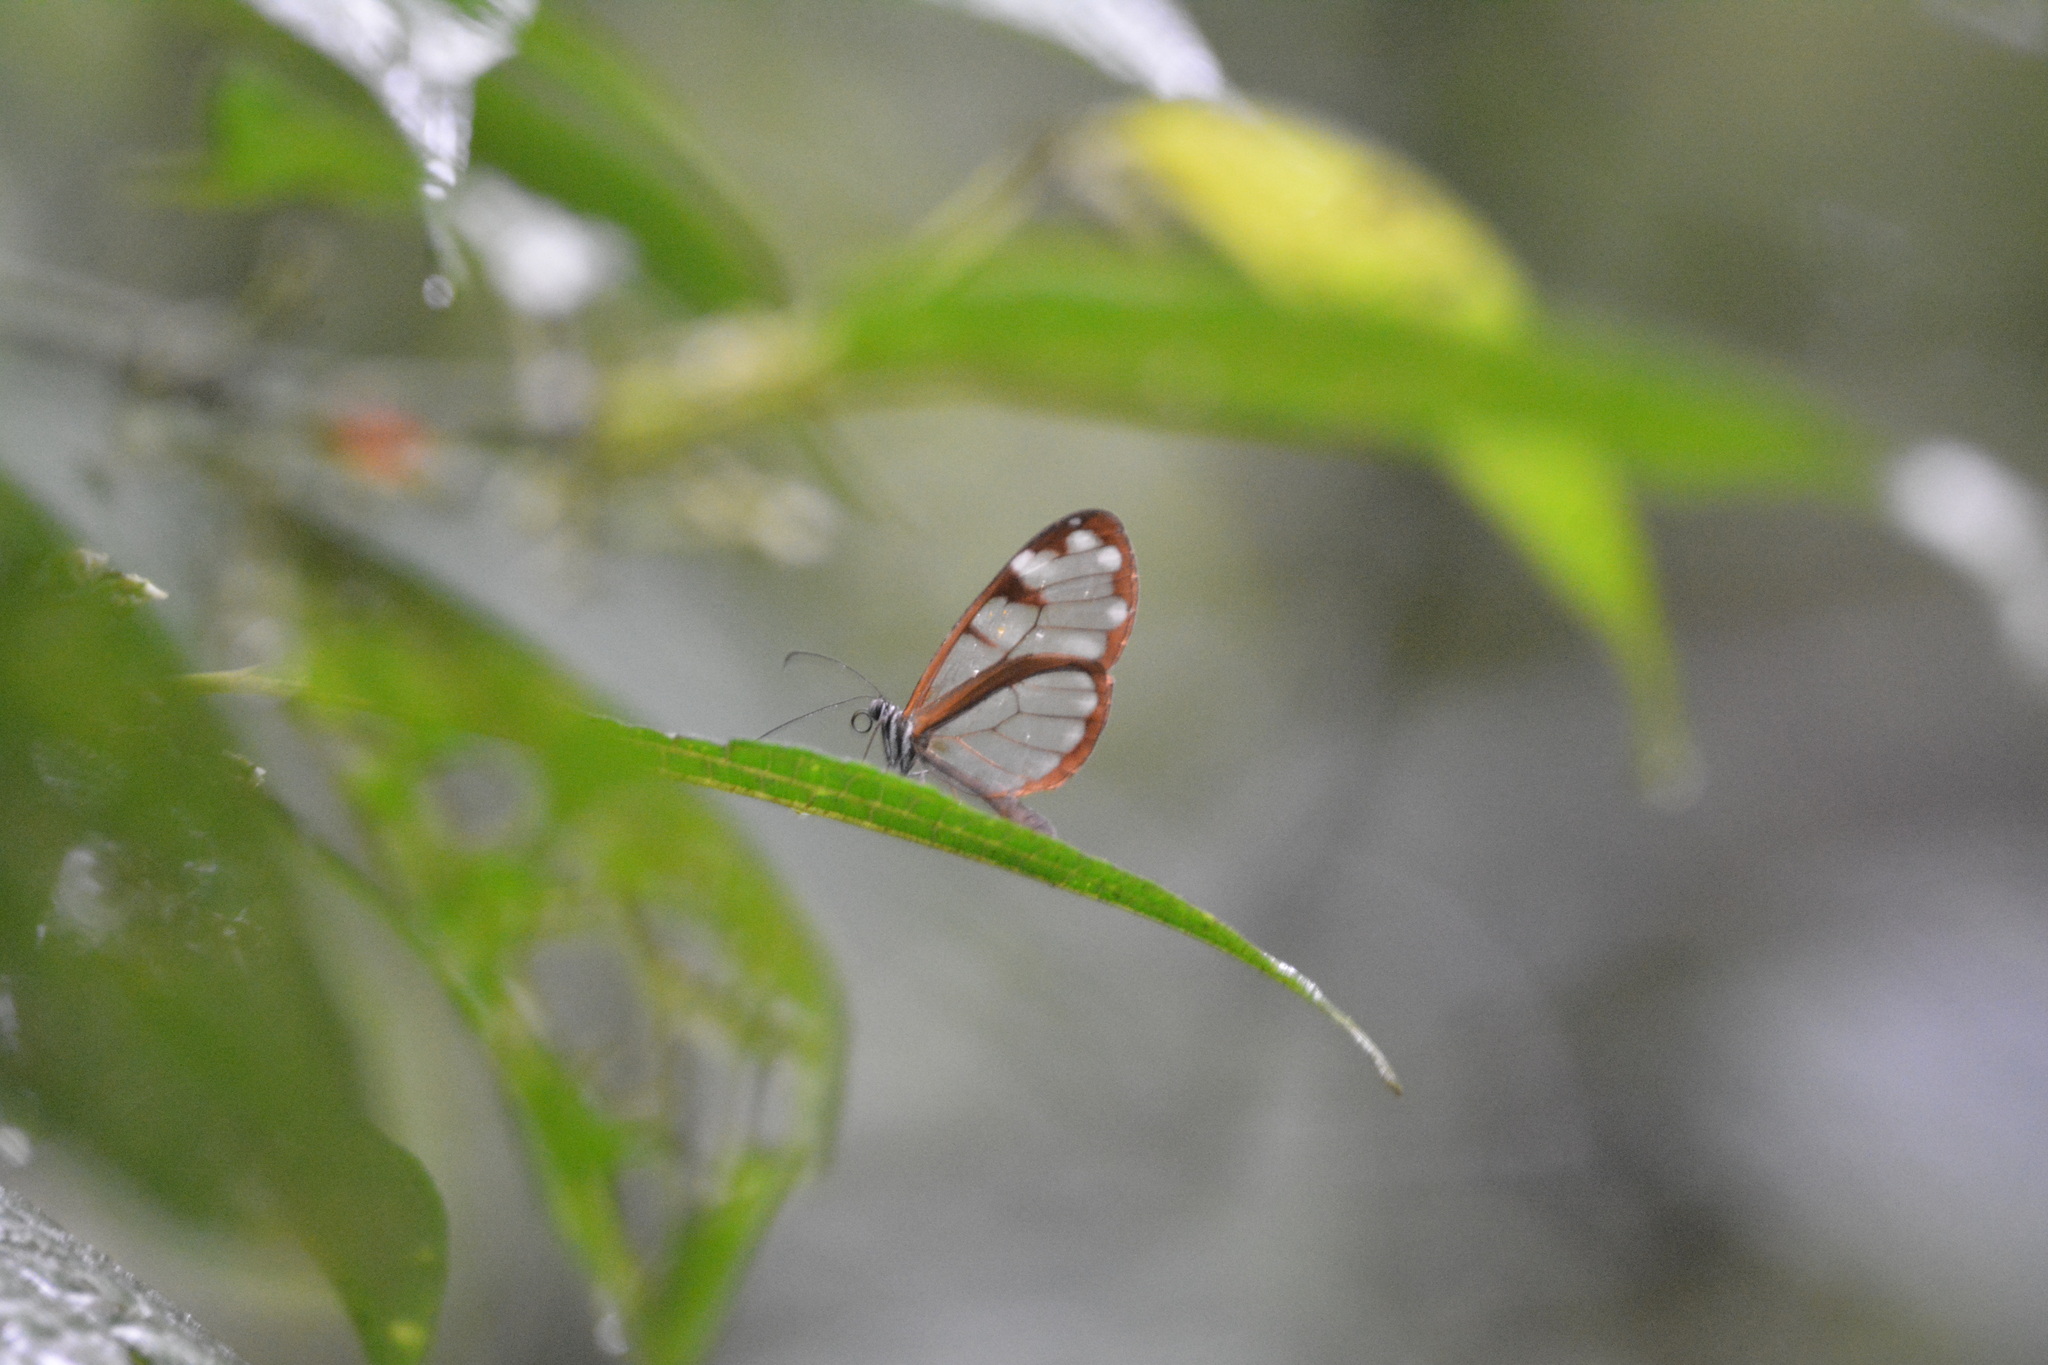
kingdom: Animalia
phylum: Arthropoda
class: Insecta
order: Lepidoptera
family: Nymphalidae
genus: Oleria
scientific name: Oleria vicina
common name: Vicina clearwing
